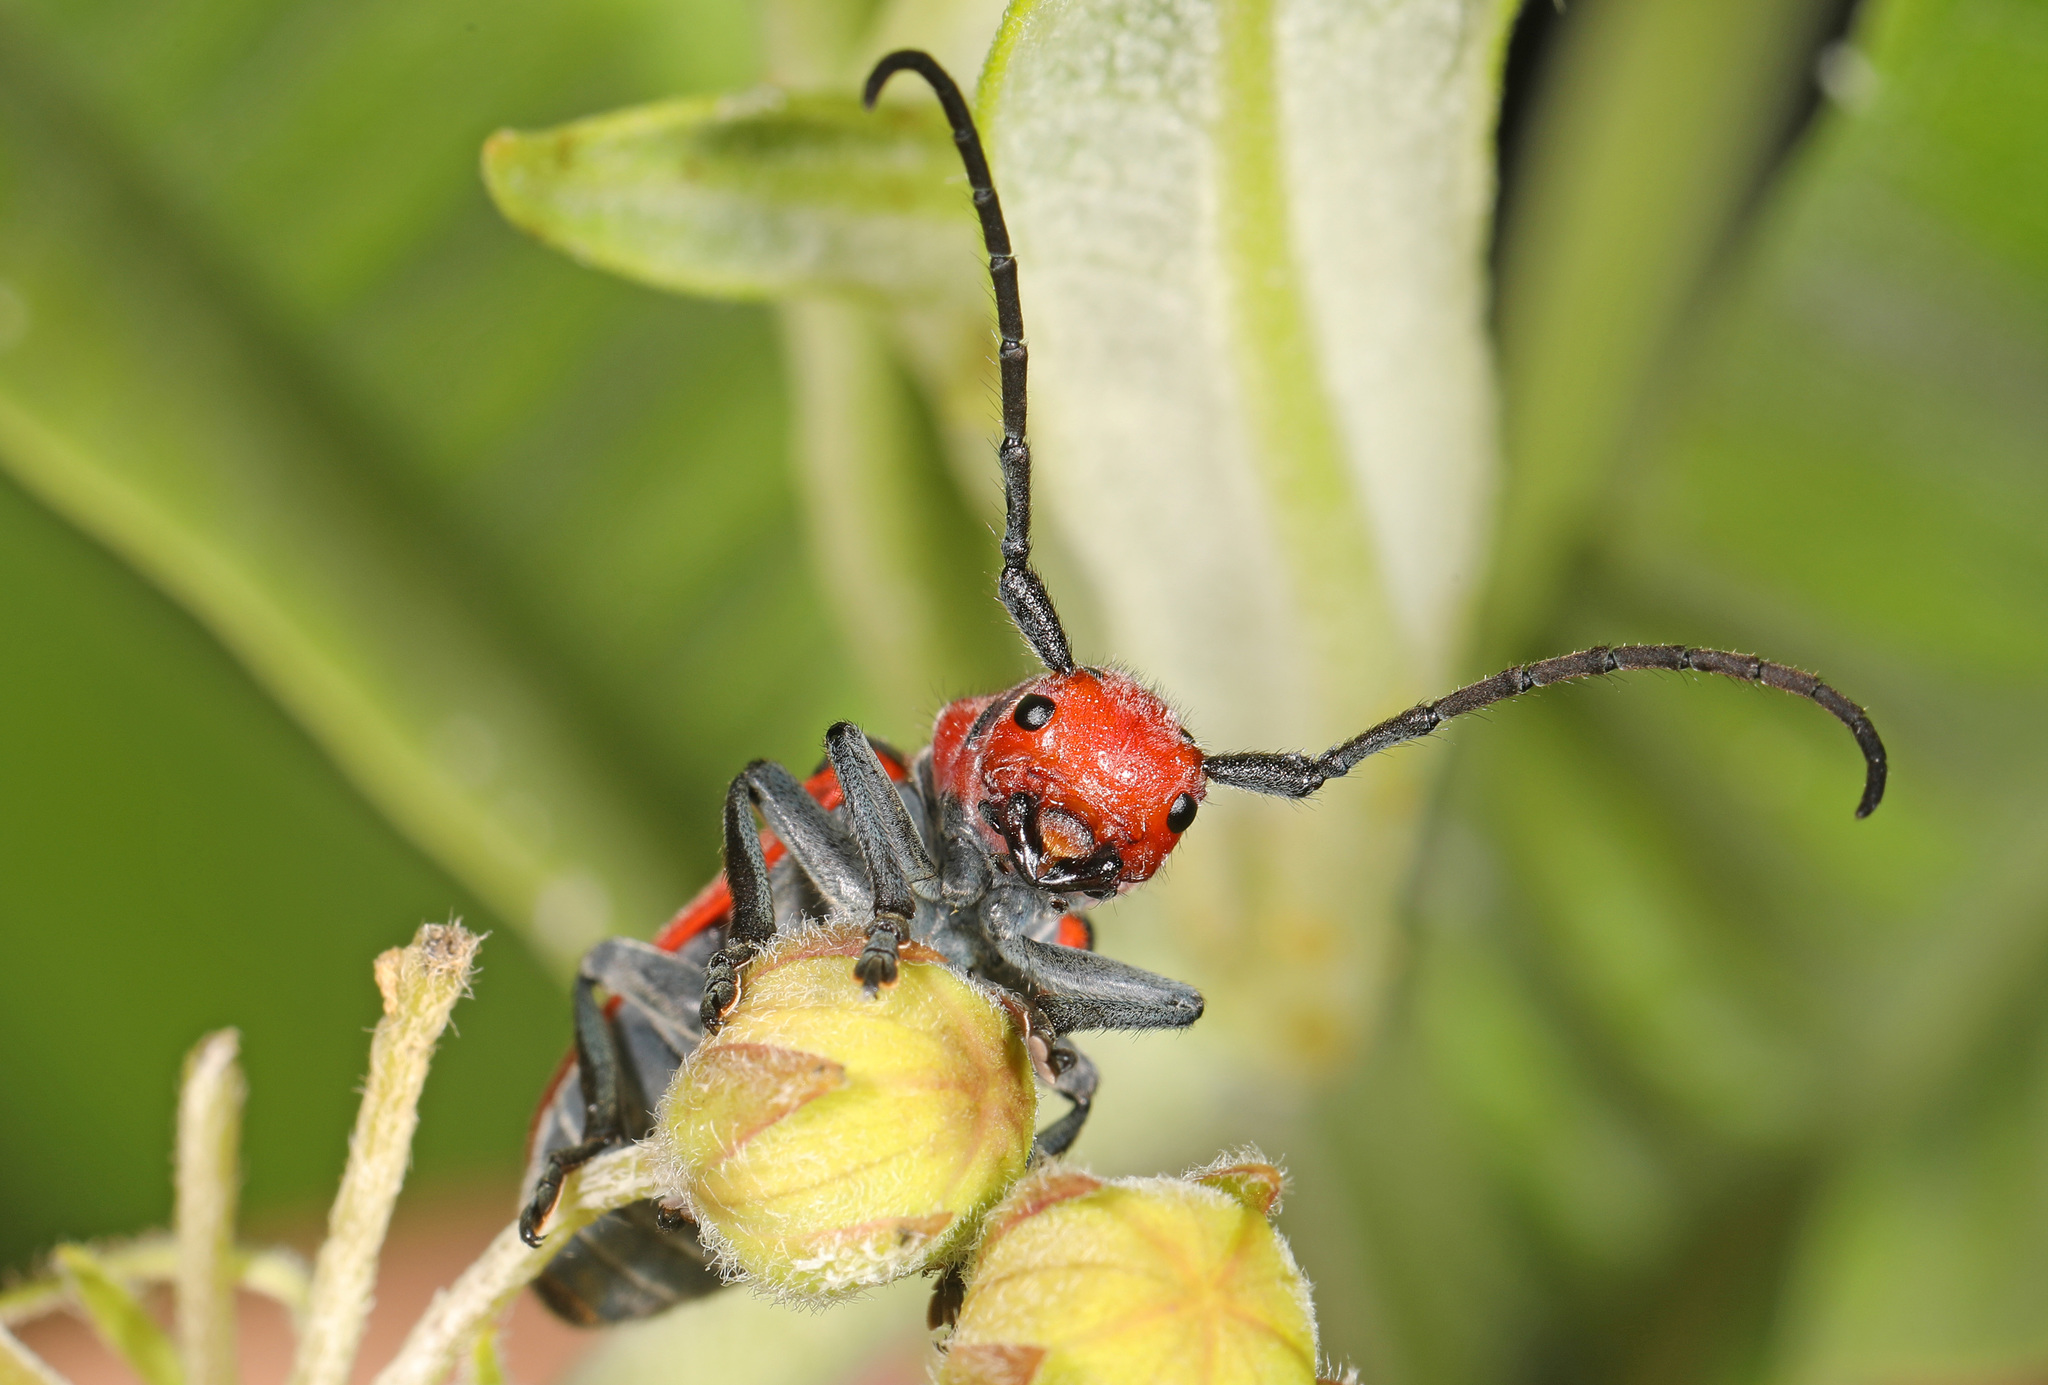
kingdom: Animalia
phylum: Arthropoda
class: Insecta
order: Coleoptera
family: Cerambycidae
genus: Tetraopes
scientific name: Tetraopes tetrophthalmus
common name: Red milkweed beetle
